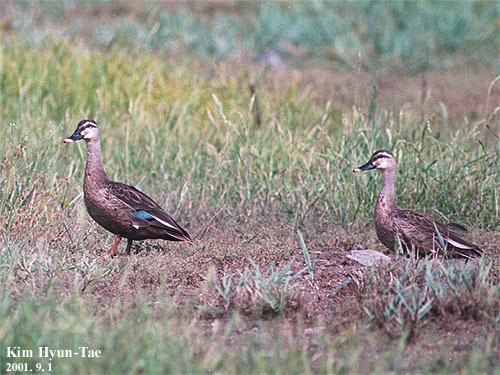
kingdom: Animalia
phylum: Chordata
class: Aves
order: Anseriformes
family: Anatidae
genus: Anas
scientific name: Anas zonorhyncha
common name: Eastern spot-billed duck
